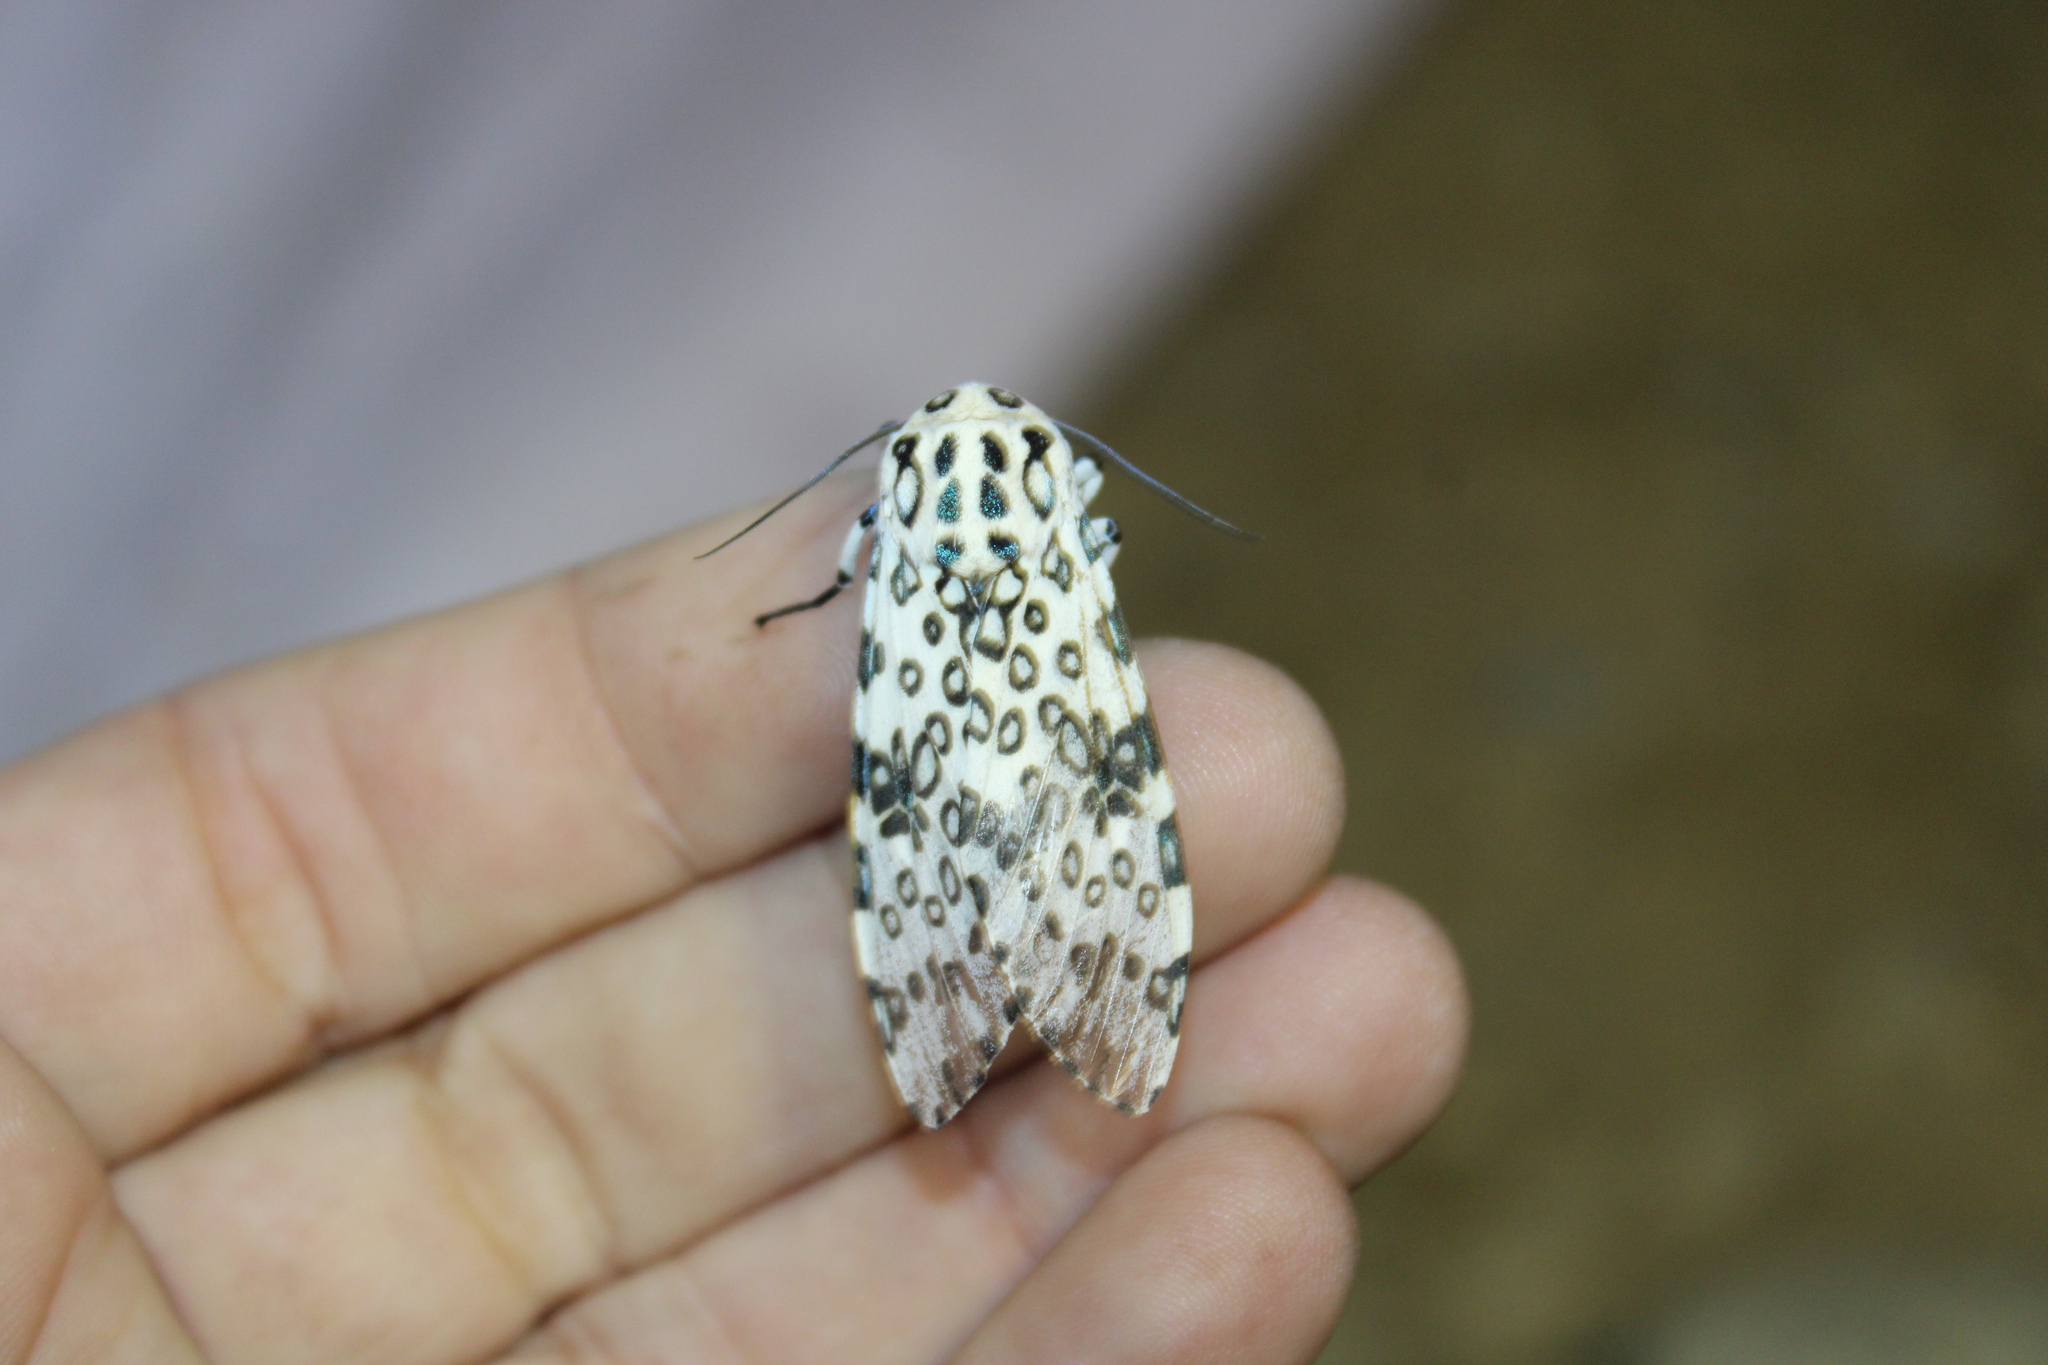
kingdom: Animalia
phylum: Arthropoda
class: Insecta
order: Lepidoptera
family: Erebidae
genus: Hypercompe
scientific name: Hypercompe scribonia
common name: Giant leopard moth
